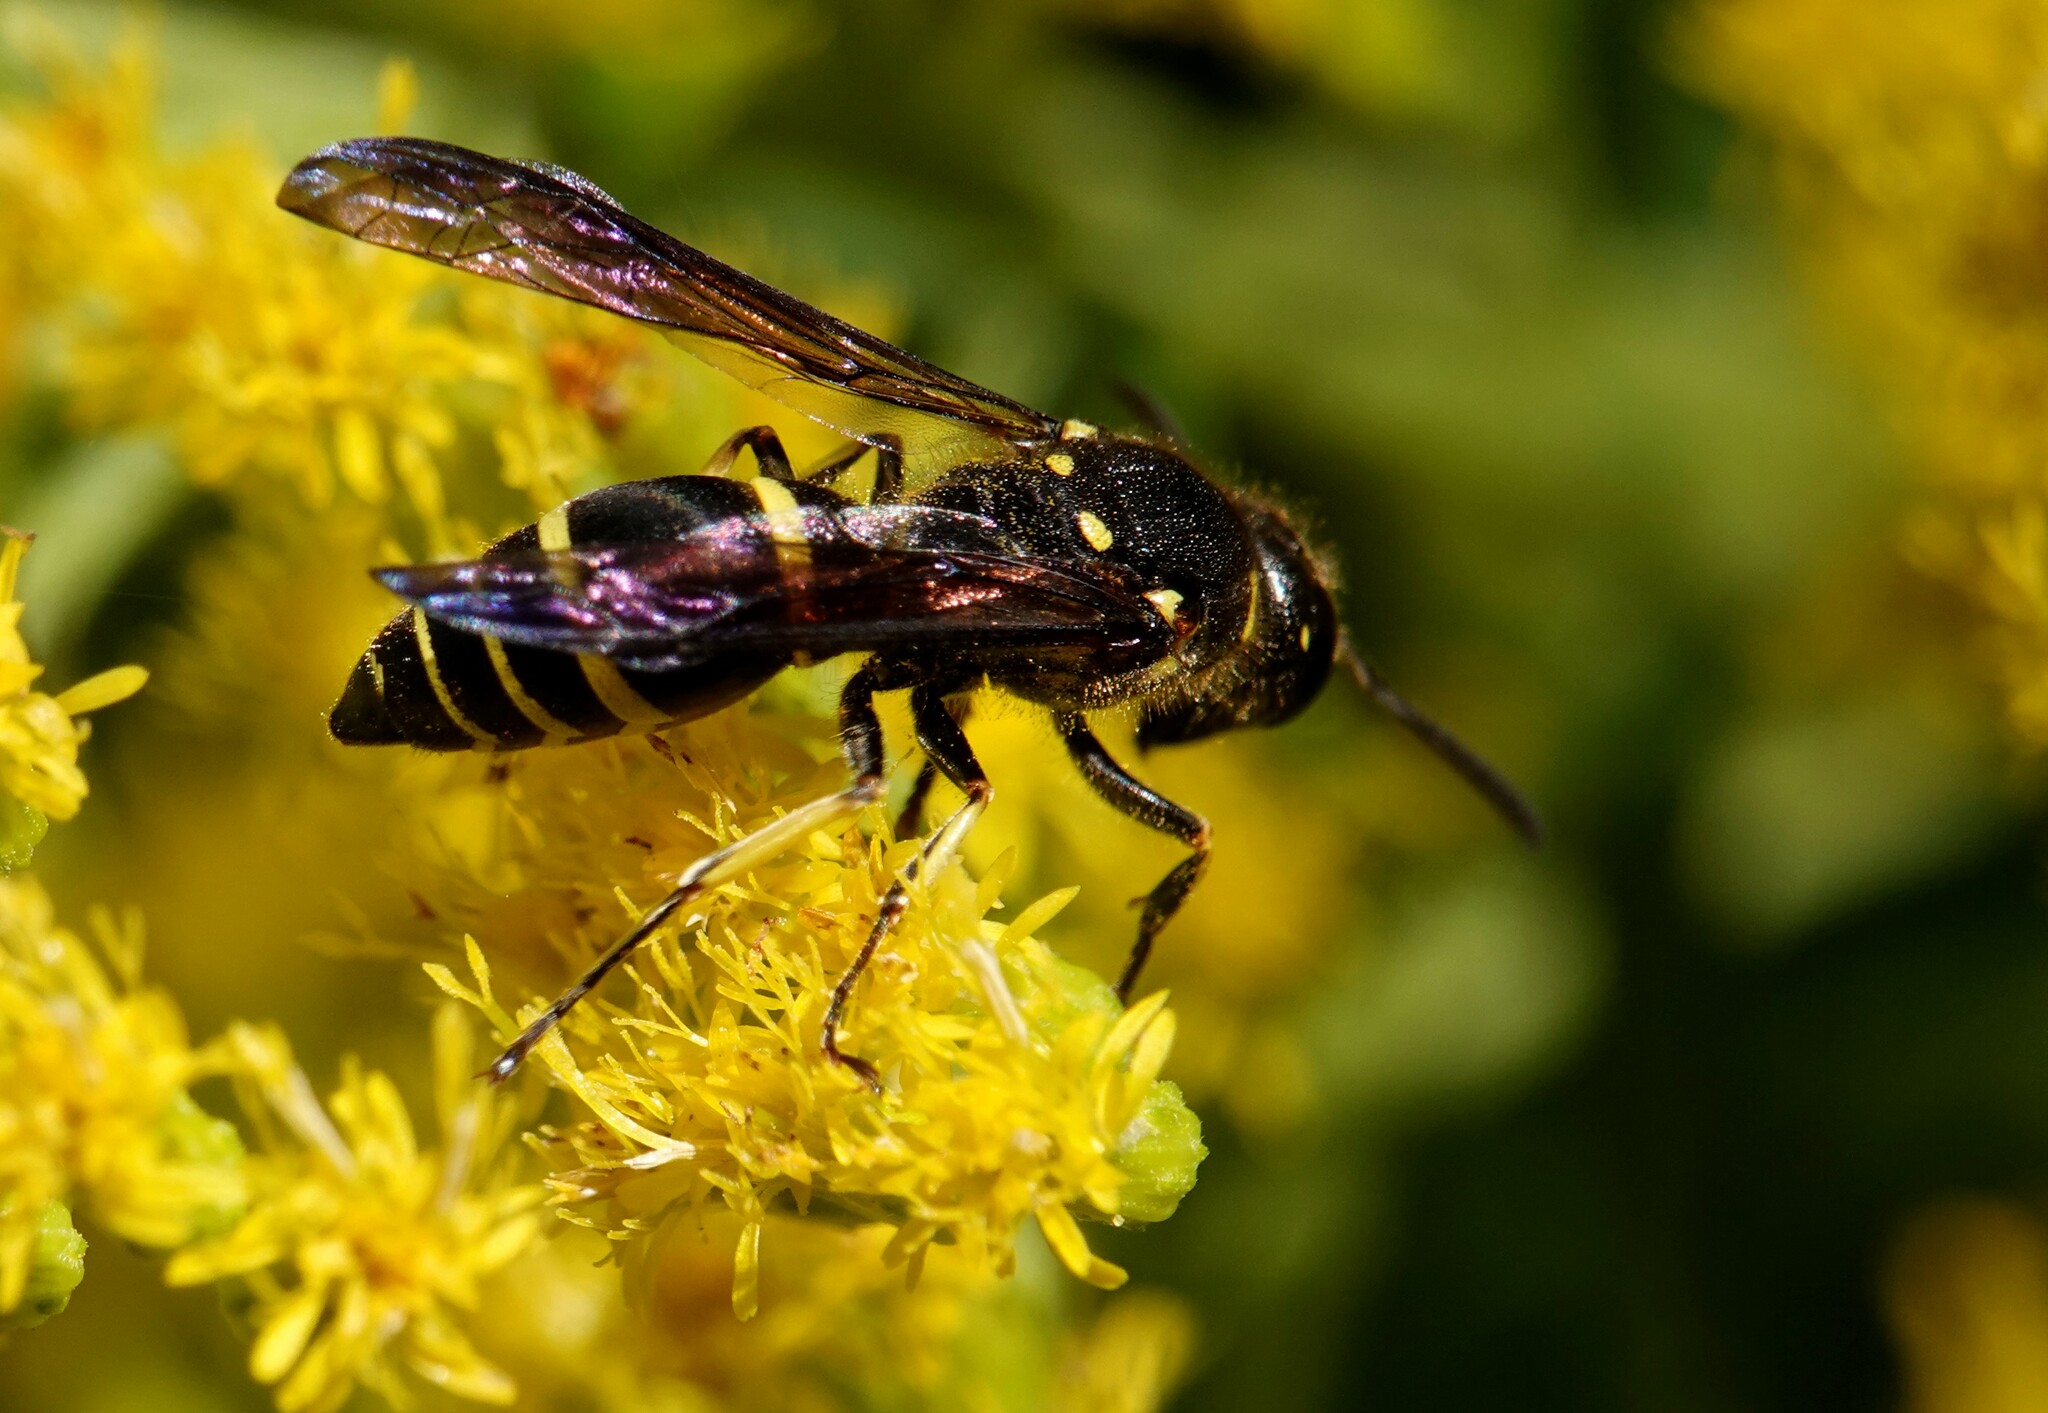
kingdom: Animalia
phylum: Arthropoda
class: Insecta
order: Hymenoptera
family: Vespidae
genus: Ancistrocerus
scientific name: Ancistrocerus
